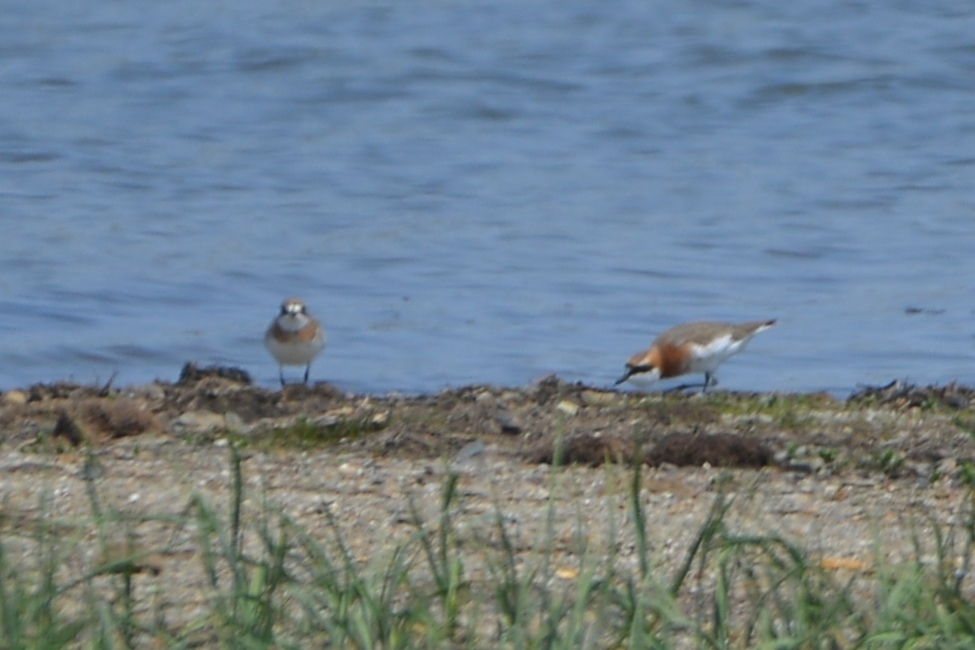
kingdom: Animalia
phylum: Chordata
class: Aves
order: Charadriiformes
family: Charadriidae
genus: Anarhynchus
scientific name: Anarhynchus
